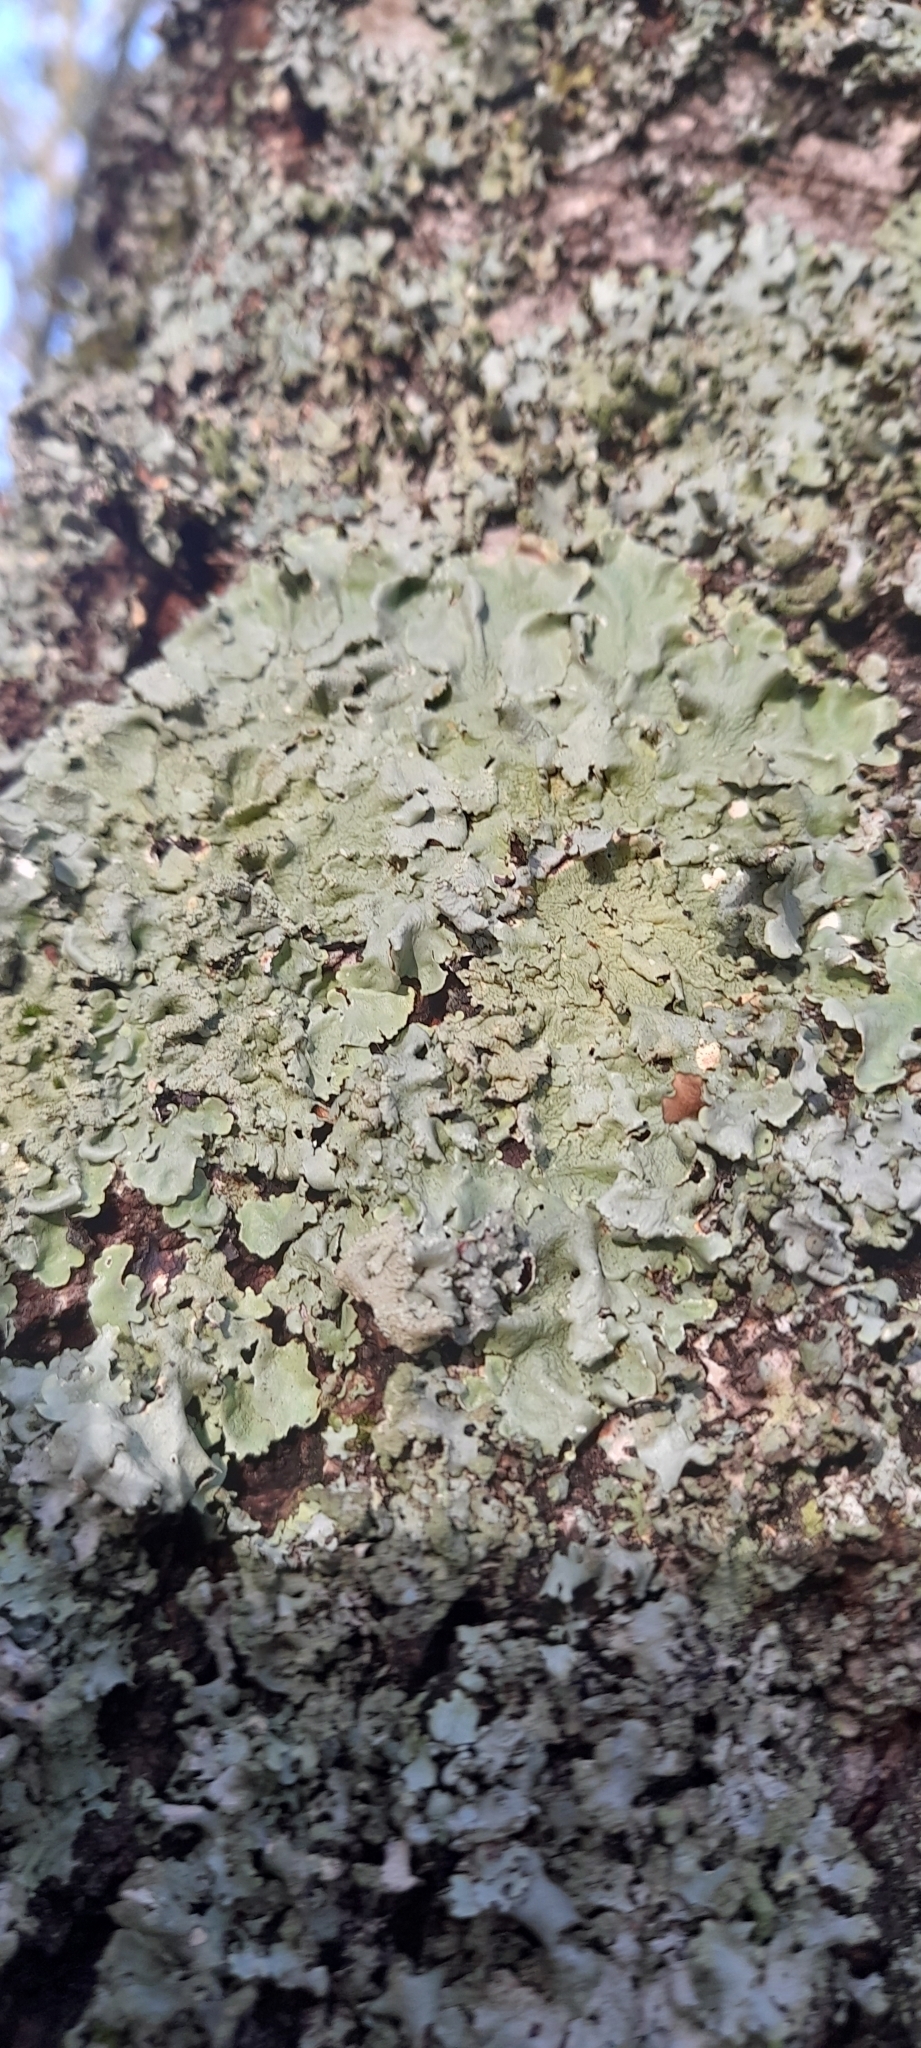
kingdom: Fungi
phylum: Ascomycota
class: Lecanoromycetes
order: Lecanorales
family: Parmeliaceae
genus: Flavoparmelia
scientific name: Flavoparmelia caperata
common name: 40-mile per hour lichen
